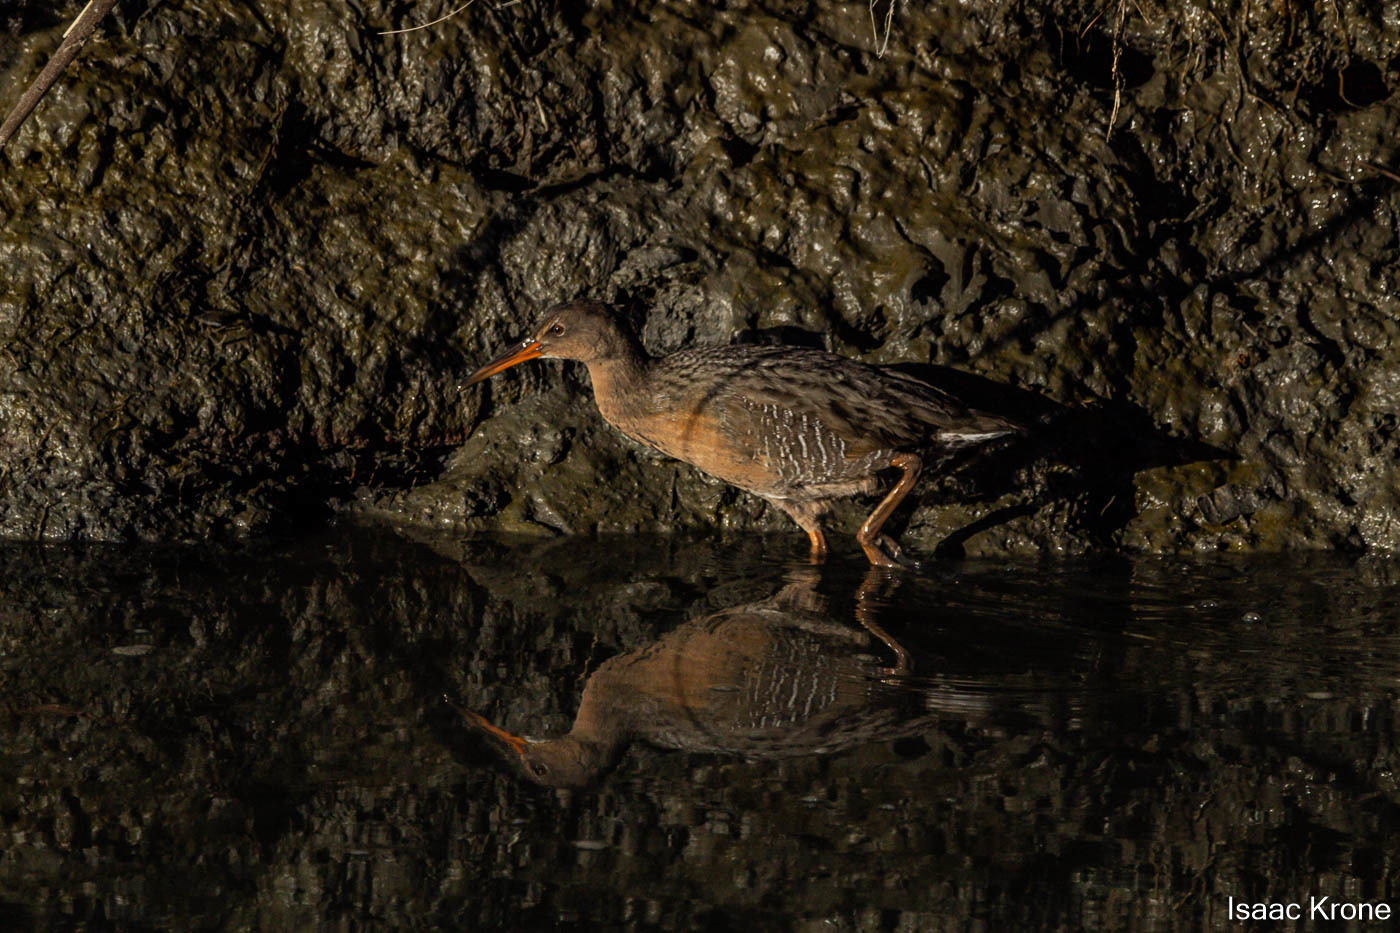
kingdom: Animalia
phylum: Chordata
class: Aves
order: Gruiformes
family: Rallidae
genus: Rallus
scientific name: Rallus obsoletus
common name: Ridgway's rail
